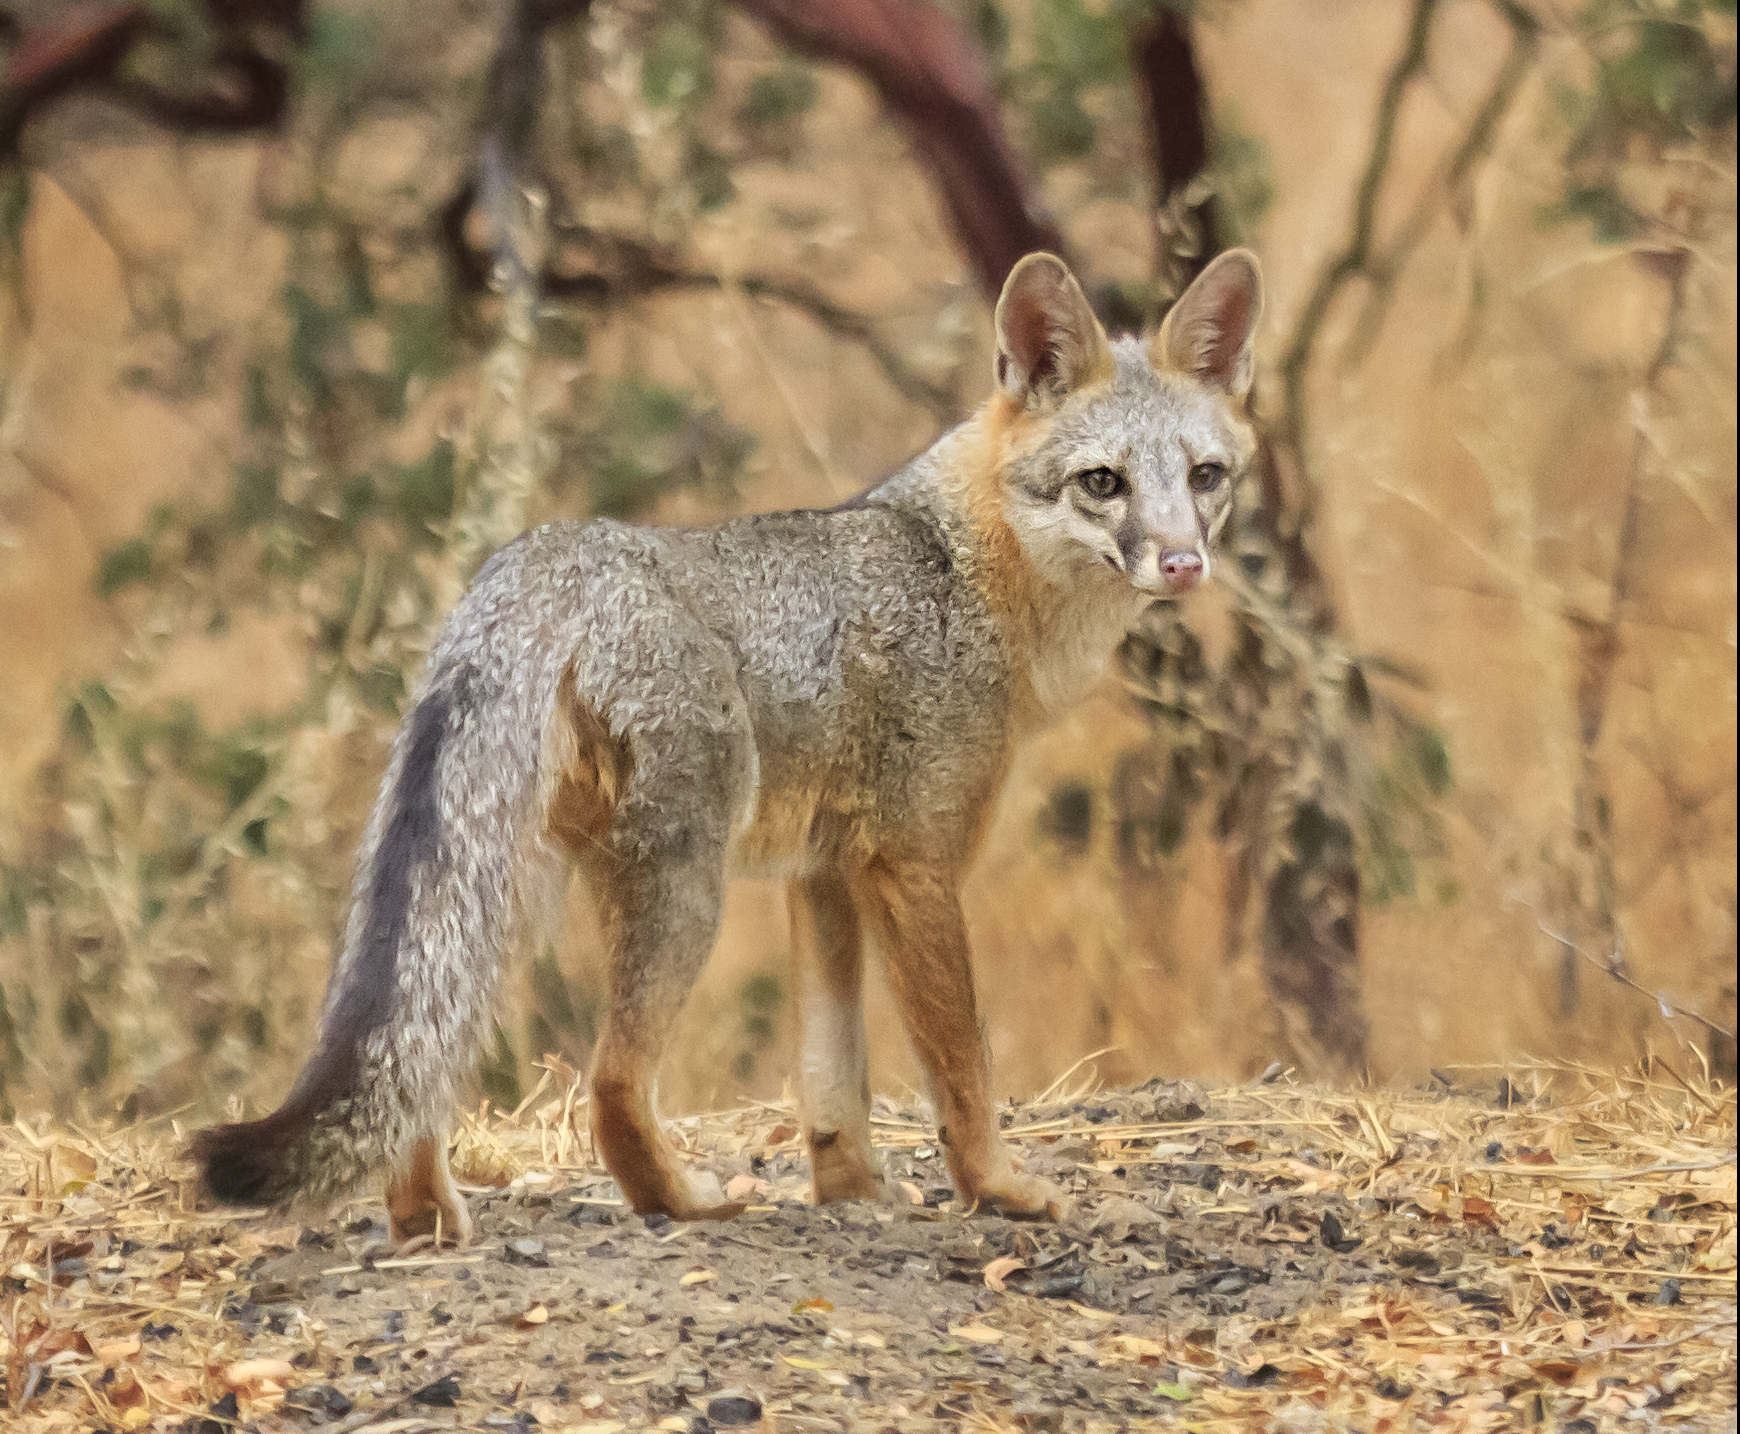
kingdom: Animalia
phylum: Chordata
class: Mammalia
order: Carnivora
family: Canidae
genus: Urocyon
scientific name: Urocyon cinereoargenteus
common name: Gray fox
